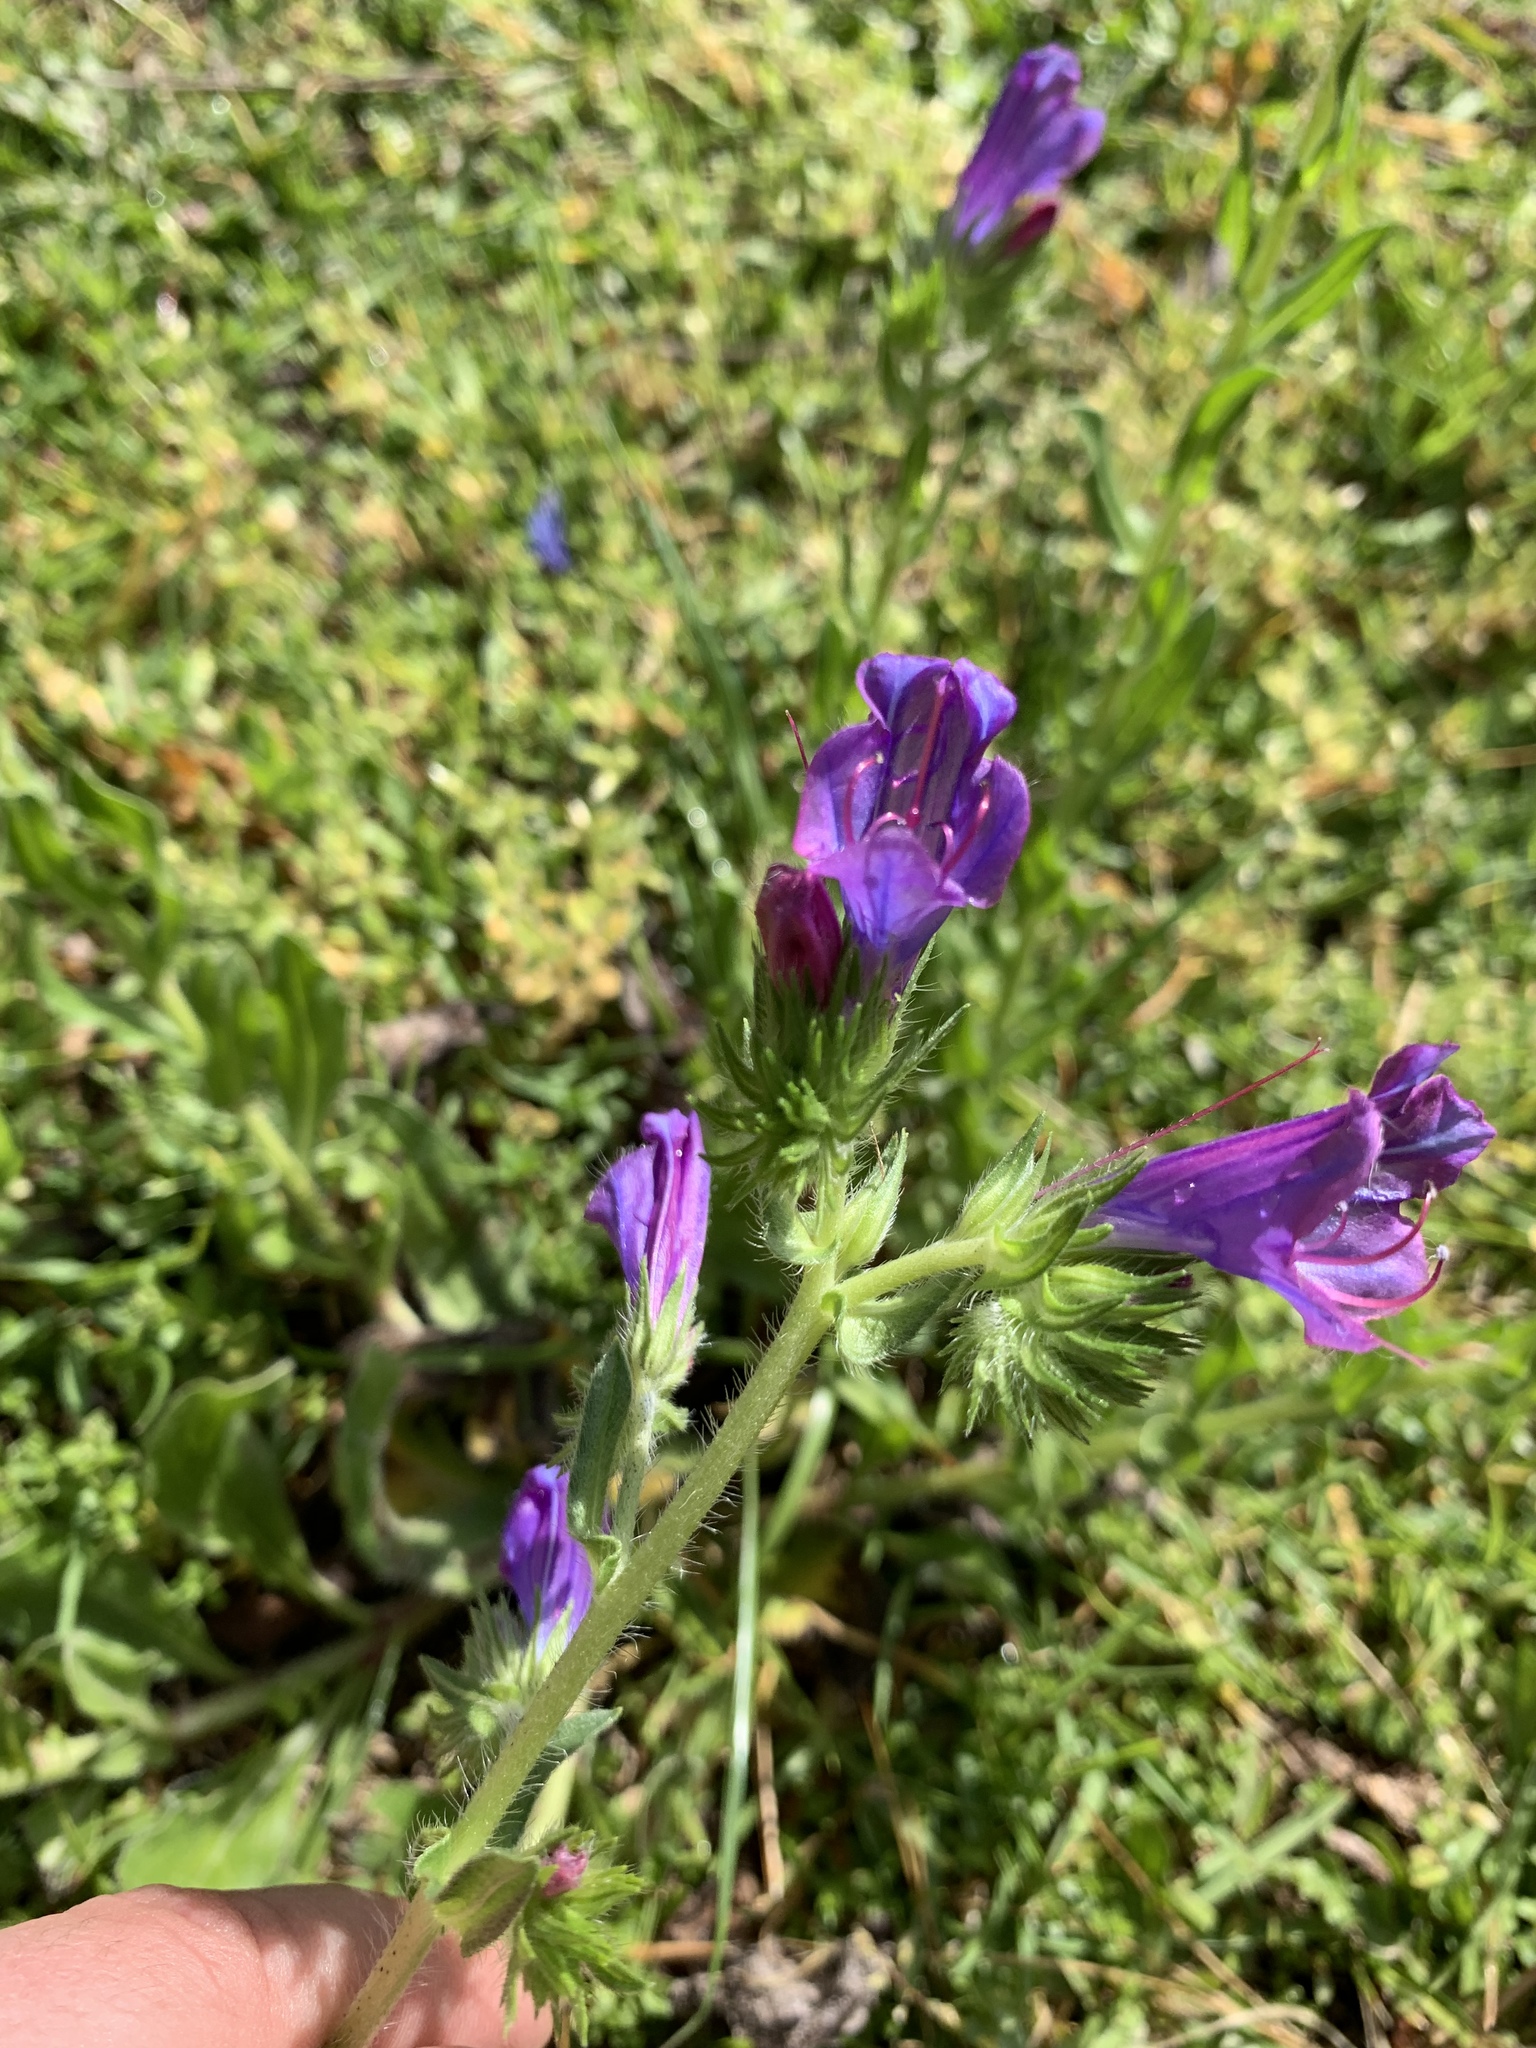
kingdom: Plantae
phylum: Tracheophyta
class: Magnoliopsida
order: Boraginales
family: Boraginaceae
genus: Echium
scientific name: Echium plantagineum
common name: Purple viper's-bugloss
